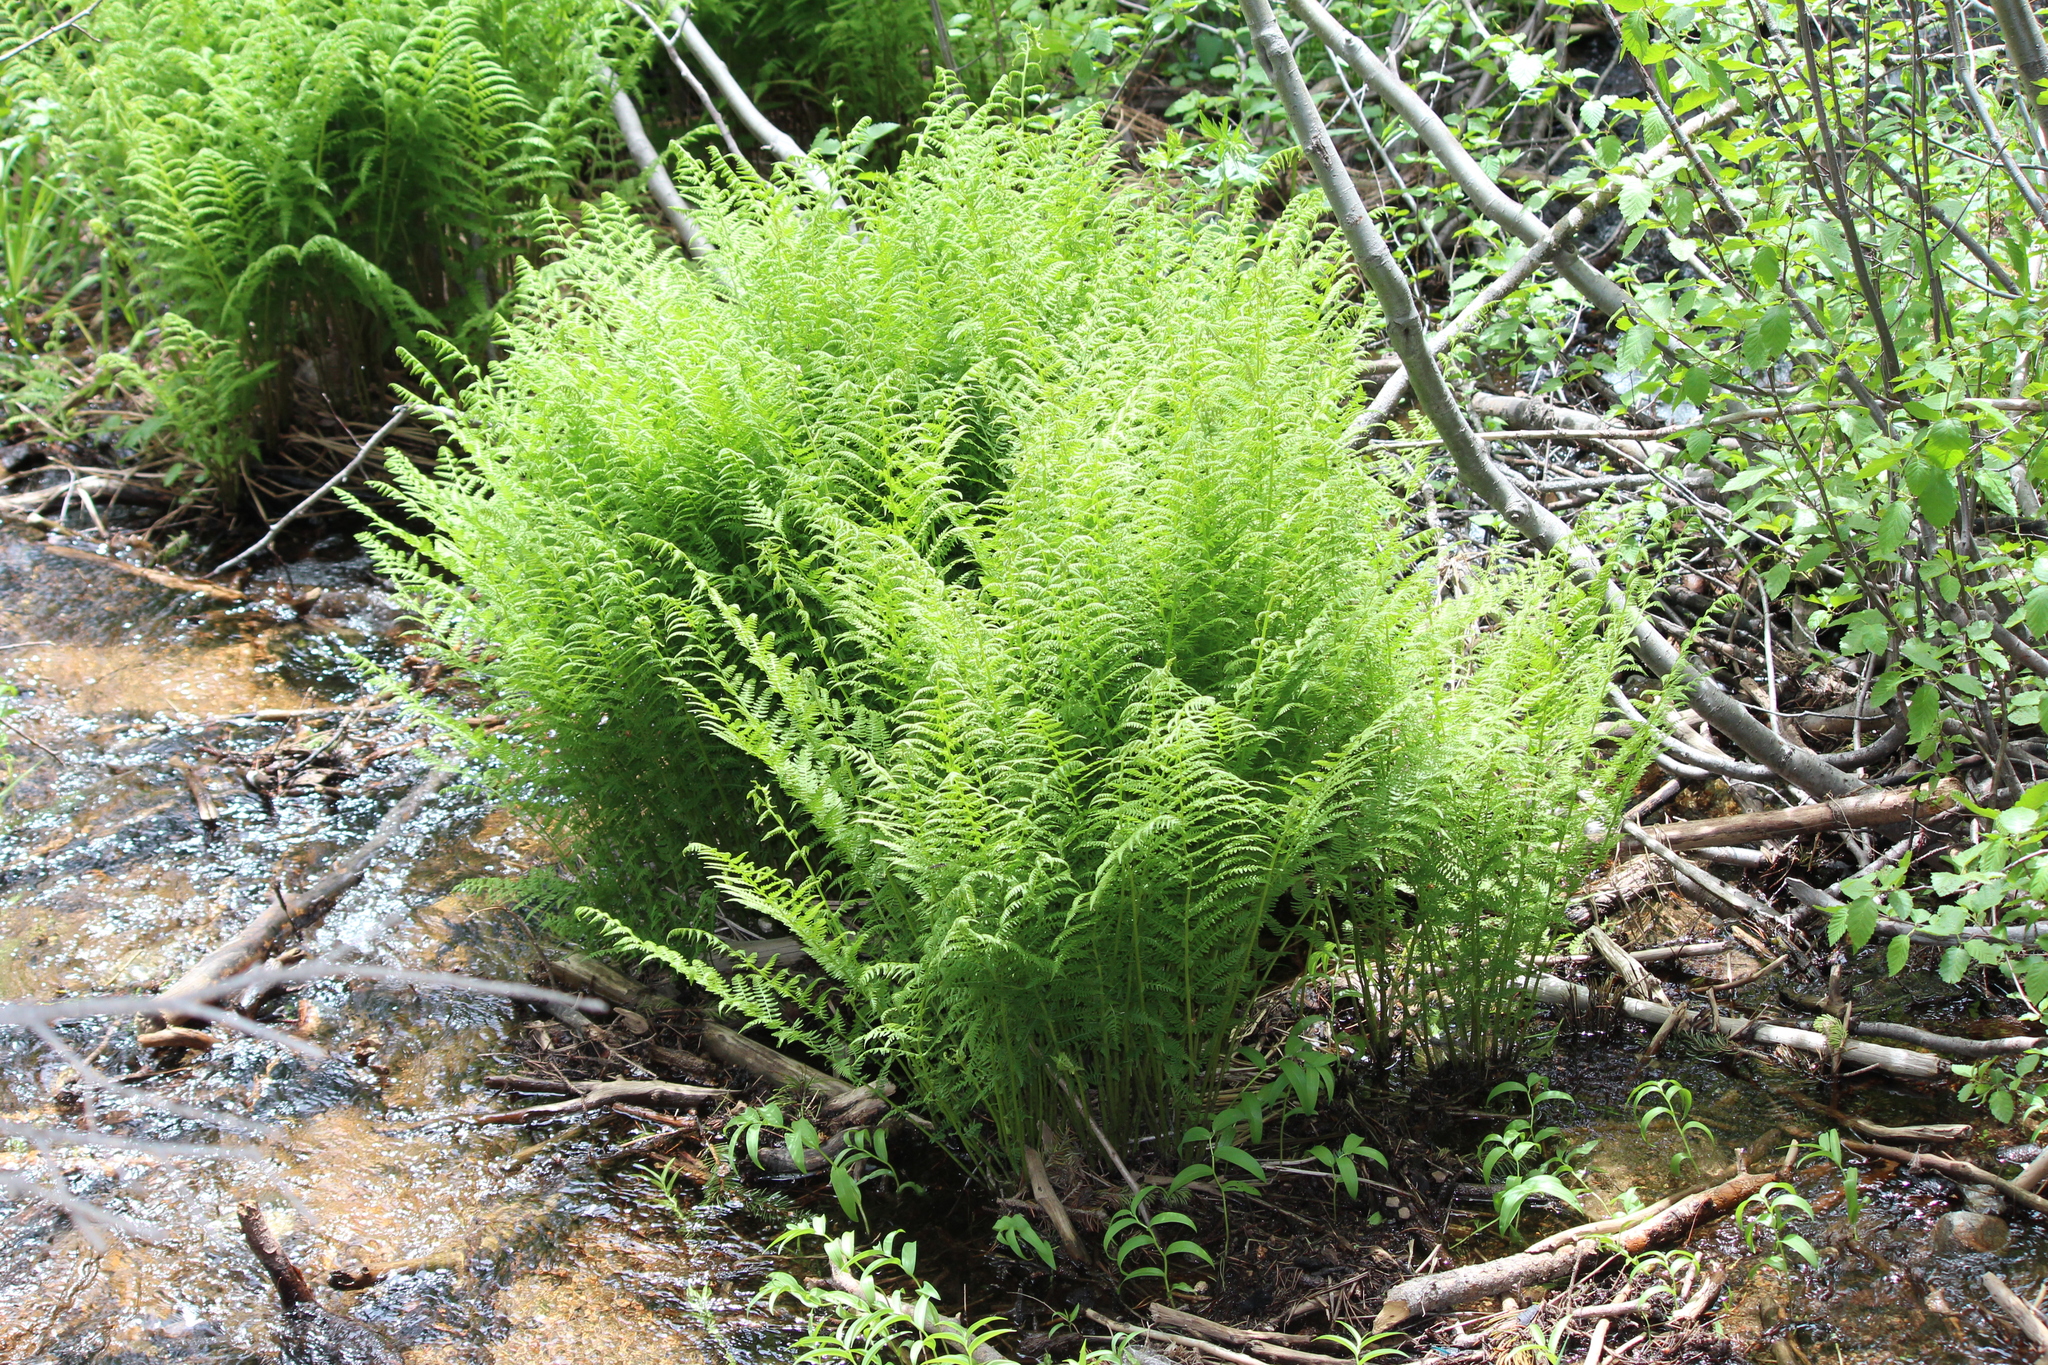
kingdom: Plantae
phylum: Tracheophyta
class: Polypodiopsida
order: Polypodiales
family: Athyriaceae
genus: Athyrium
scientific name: Athyrium cyclosorum
